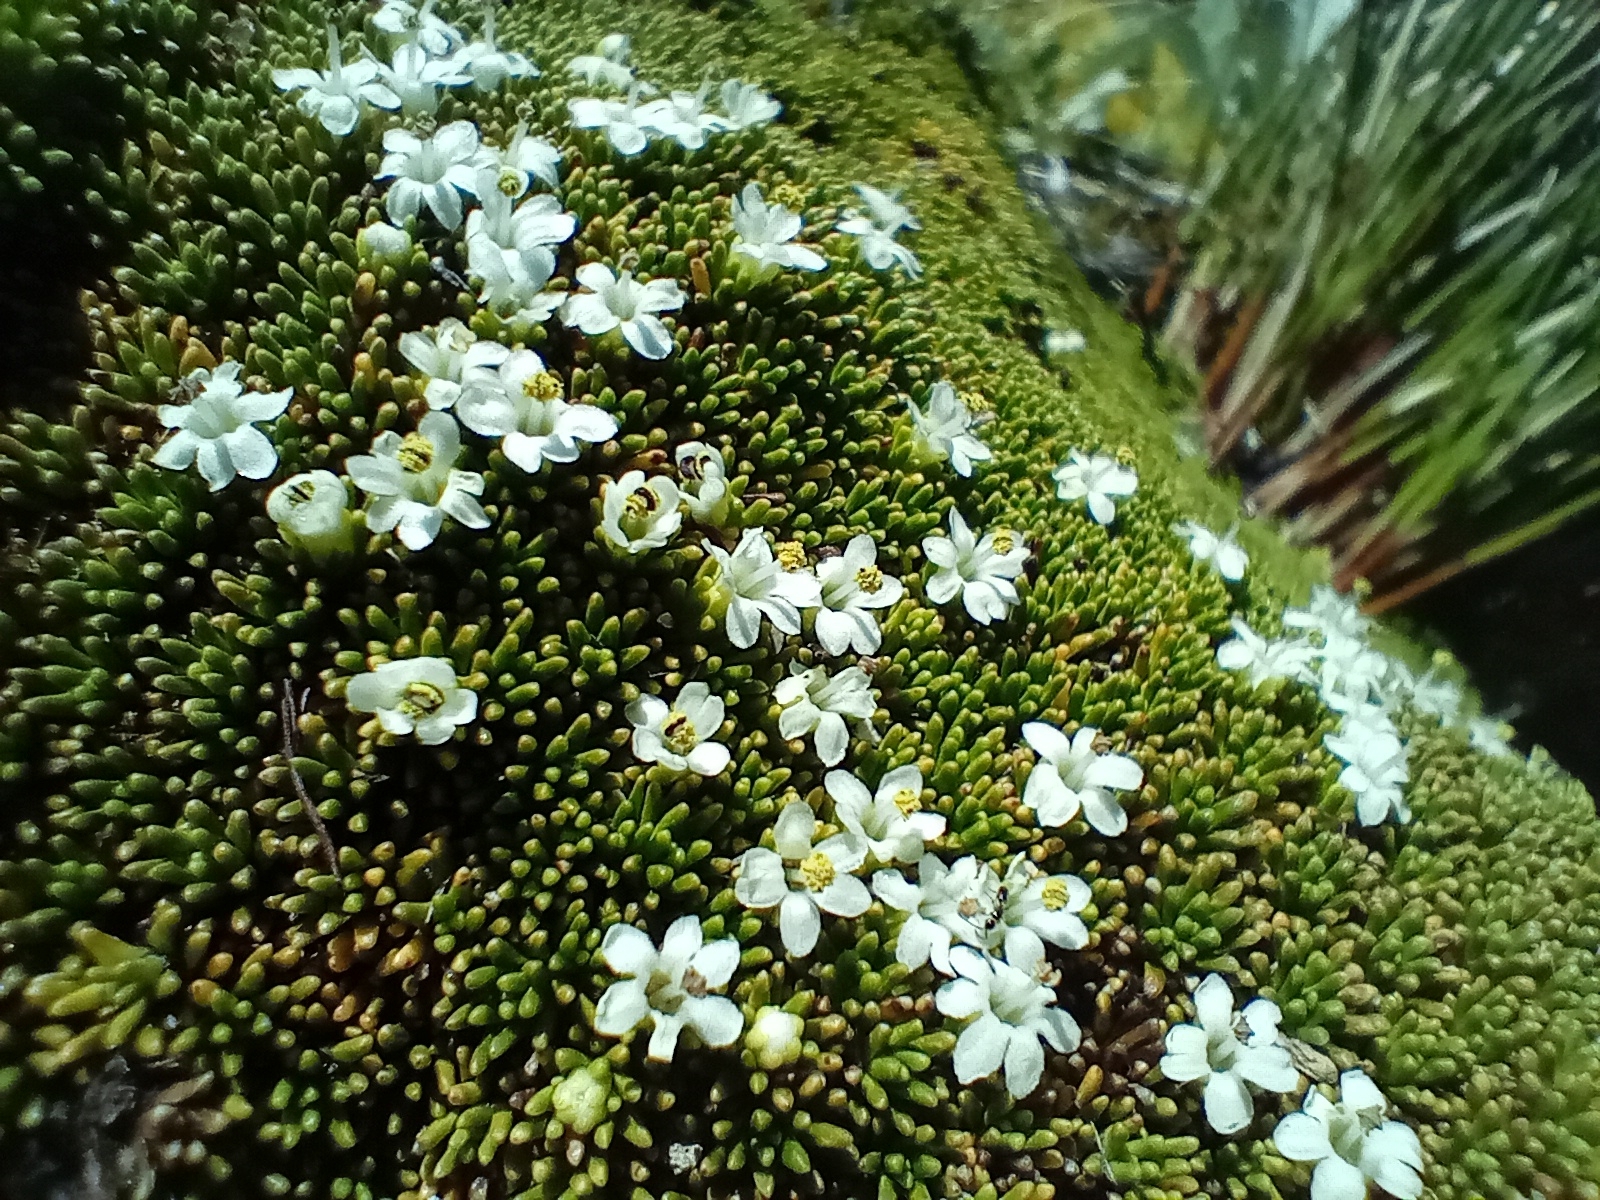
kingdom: Plantae
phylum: Tracheophyta
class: Magnoliopsida
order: Asterales
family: Stylidiaceae
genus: Phyllachne
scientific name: Phyllachne colensoi
